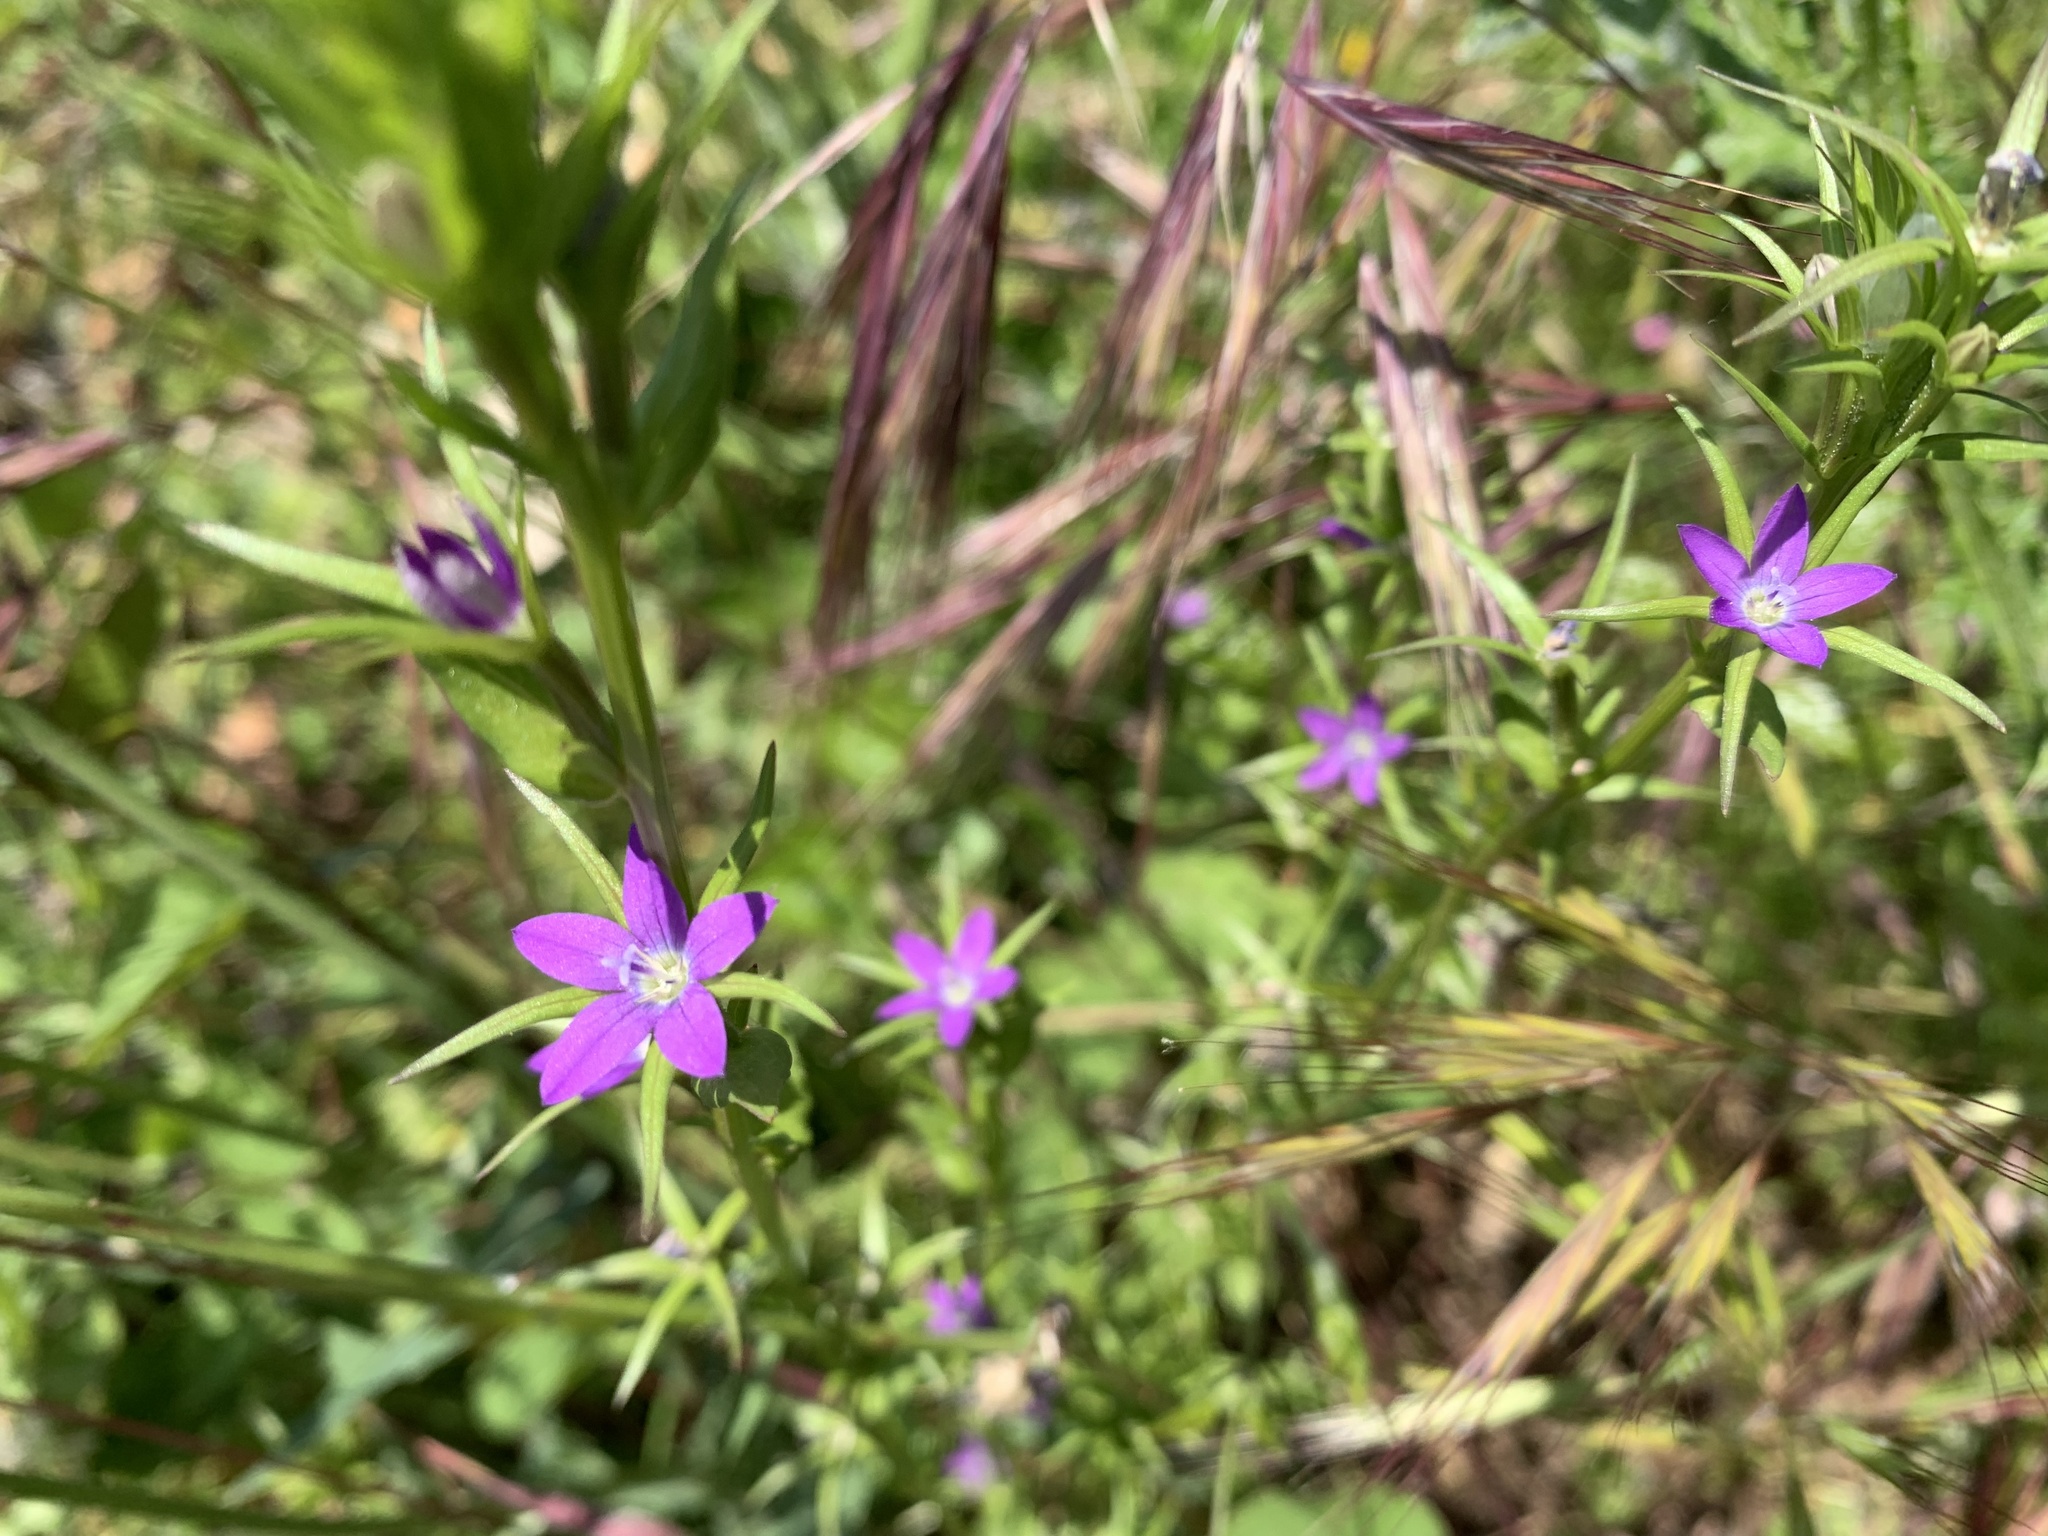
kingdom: Plantae
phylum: Tracheophyta
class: Magnoliopsida
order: Asterales
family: Campanulaceae
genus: Legousia
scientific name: Legousia falcata
